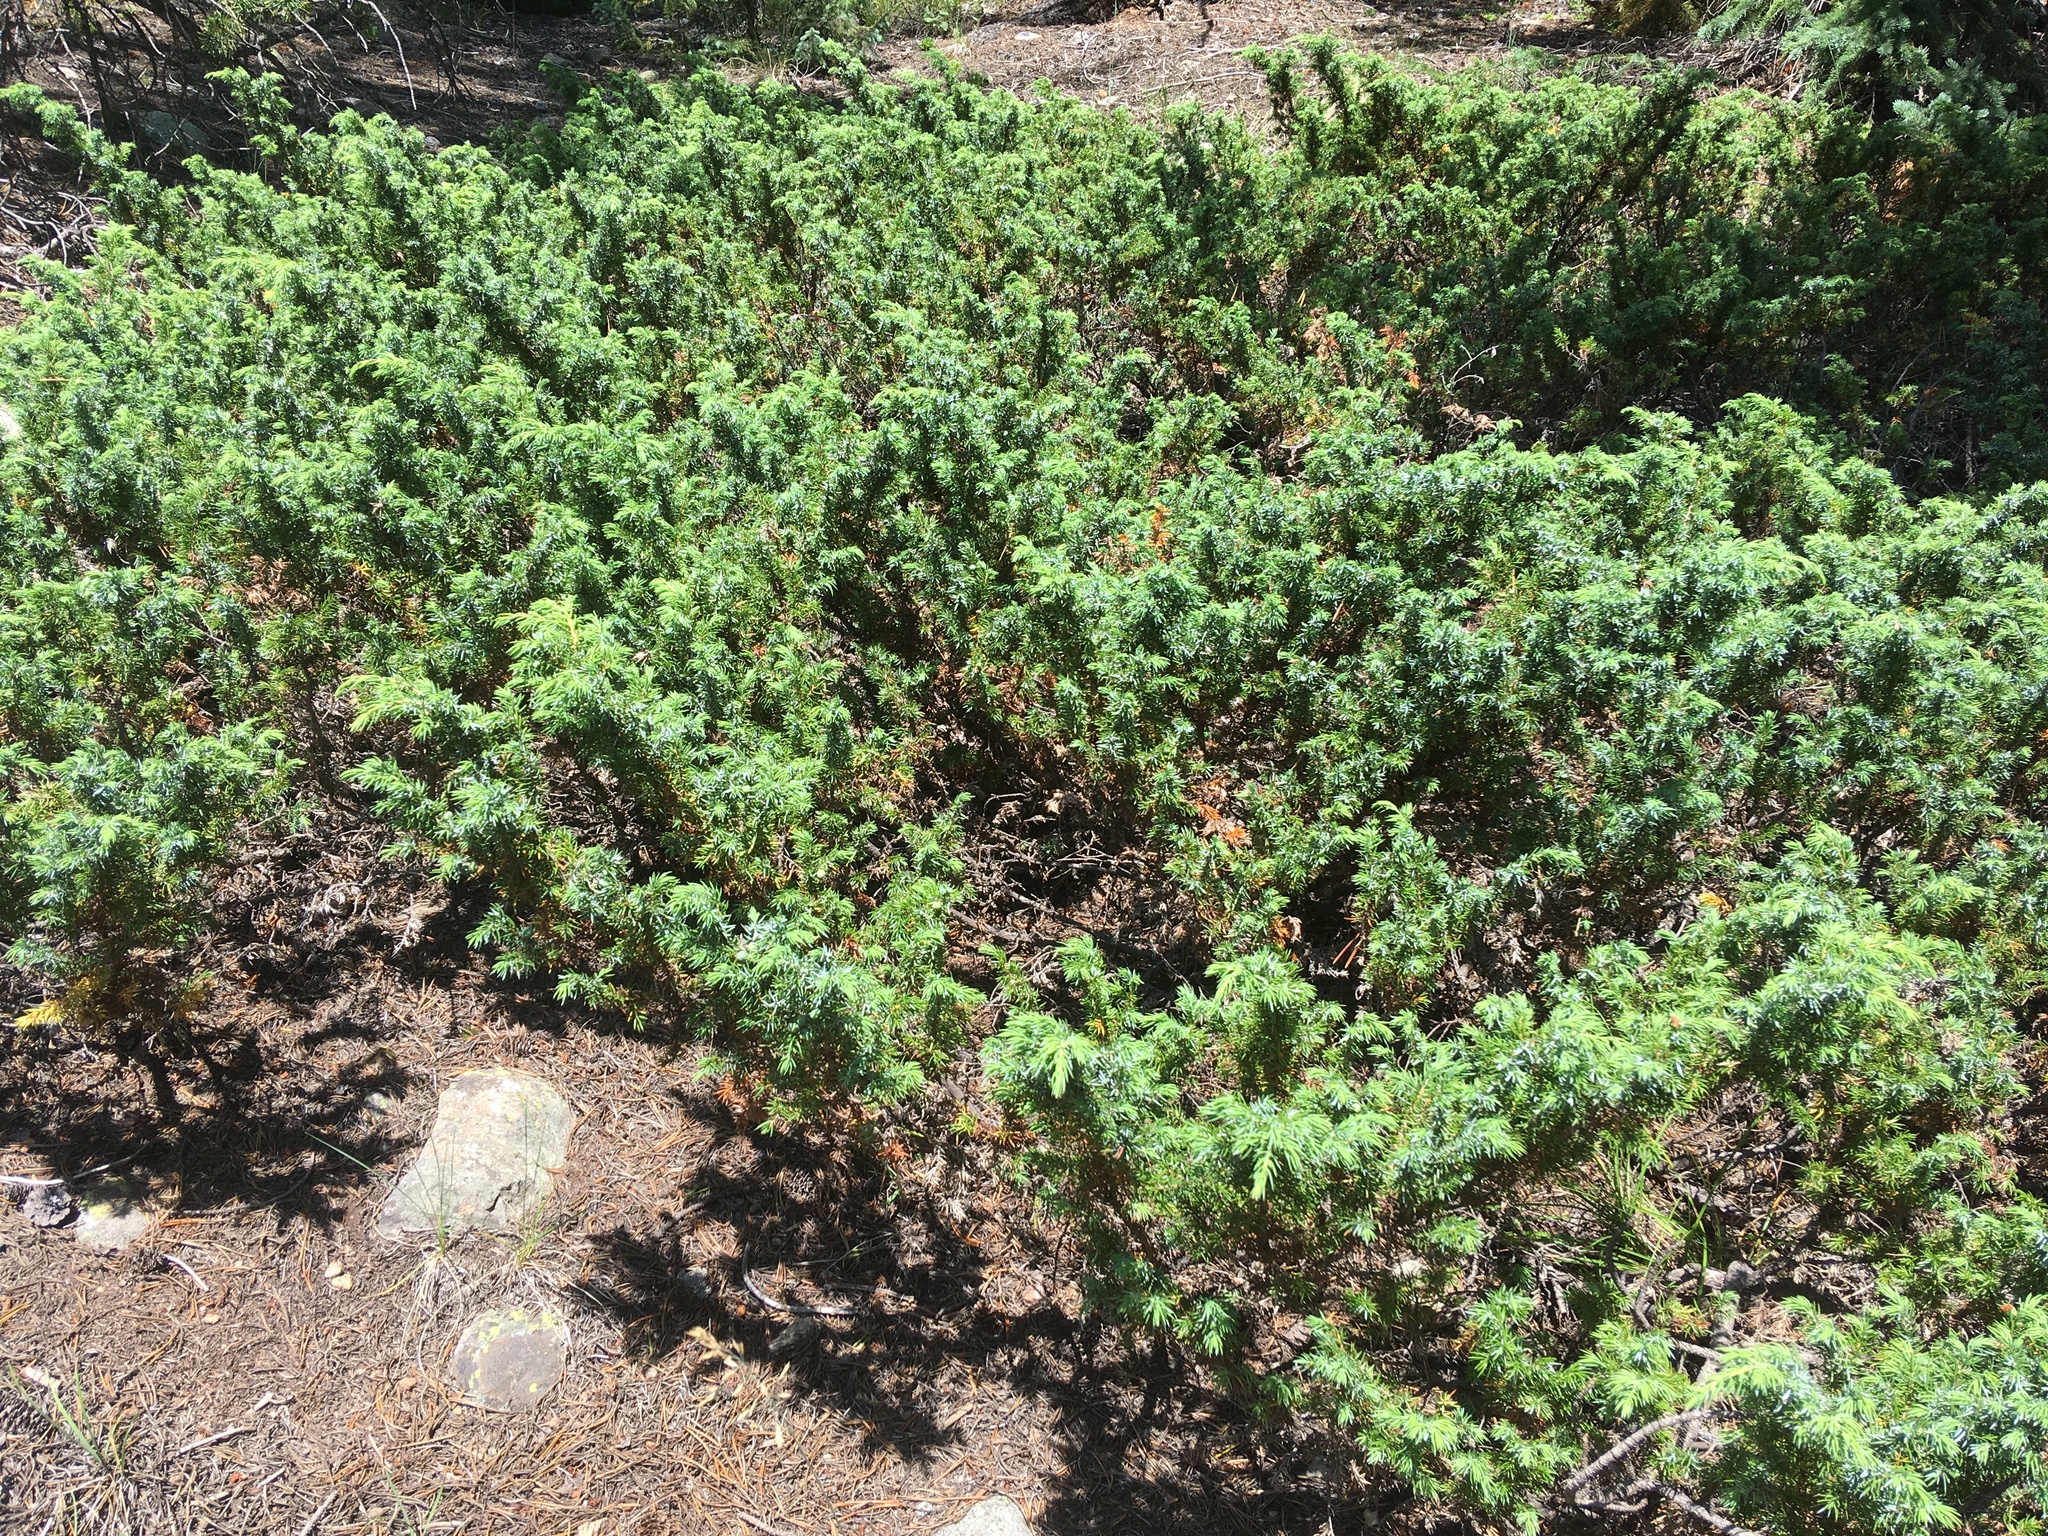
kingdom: Plantae
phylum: Tracheophyta
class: Pinopsida
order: Pinales
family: Cupressaceae
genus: Juniperus
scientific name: Juniperus communis
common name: Common juniper
